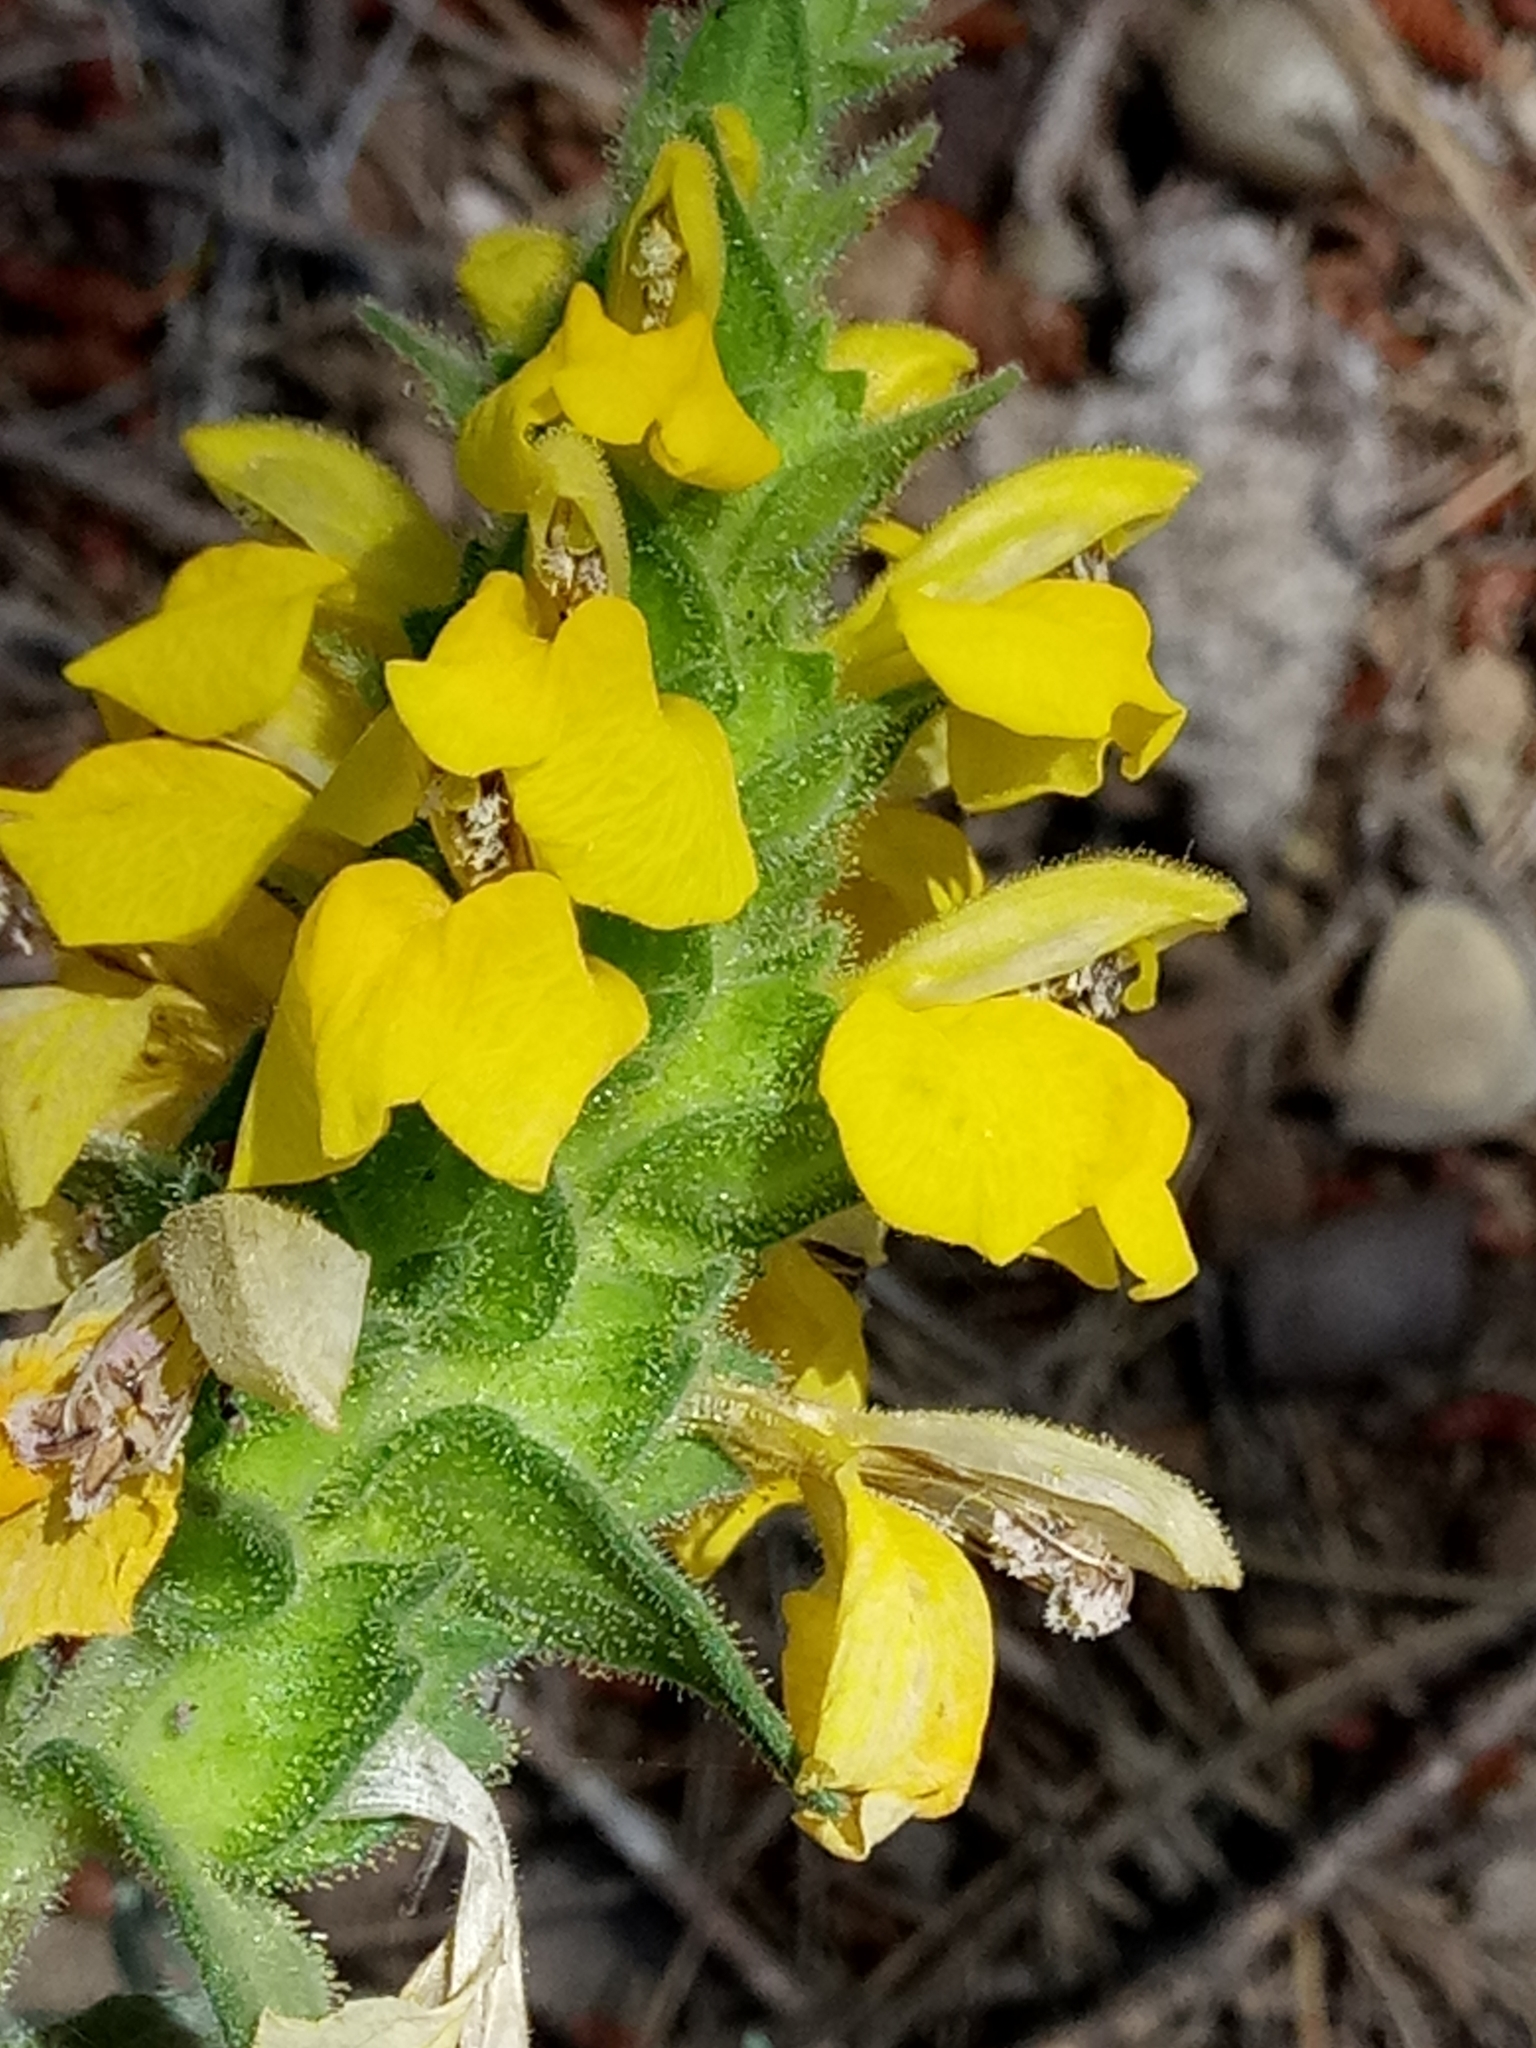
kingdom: Plantae
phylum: Tracheophyta
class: Magnoliopsida
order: Lamiales
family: Orobanchaceae
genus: Bellardia
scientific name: Bellardia trixago
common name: Mediterranean lineseed
